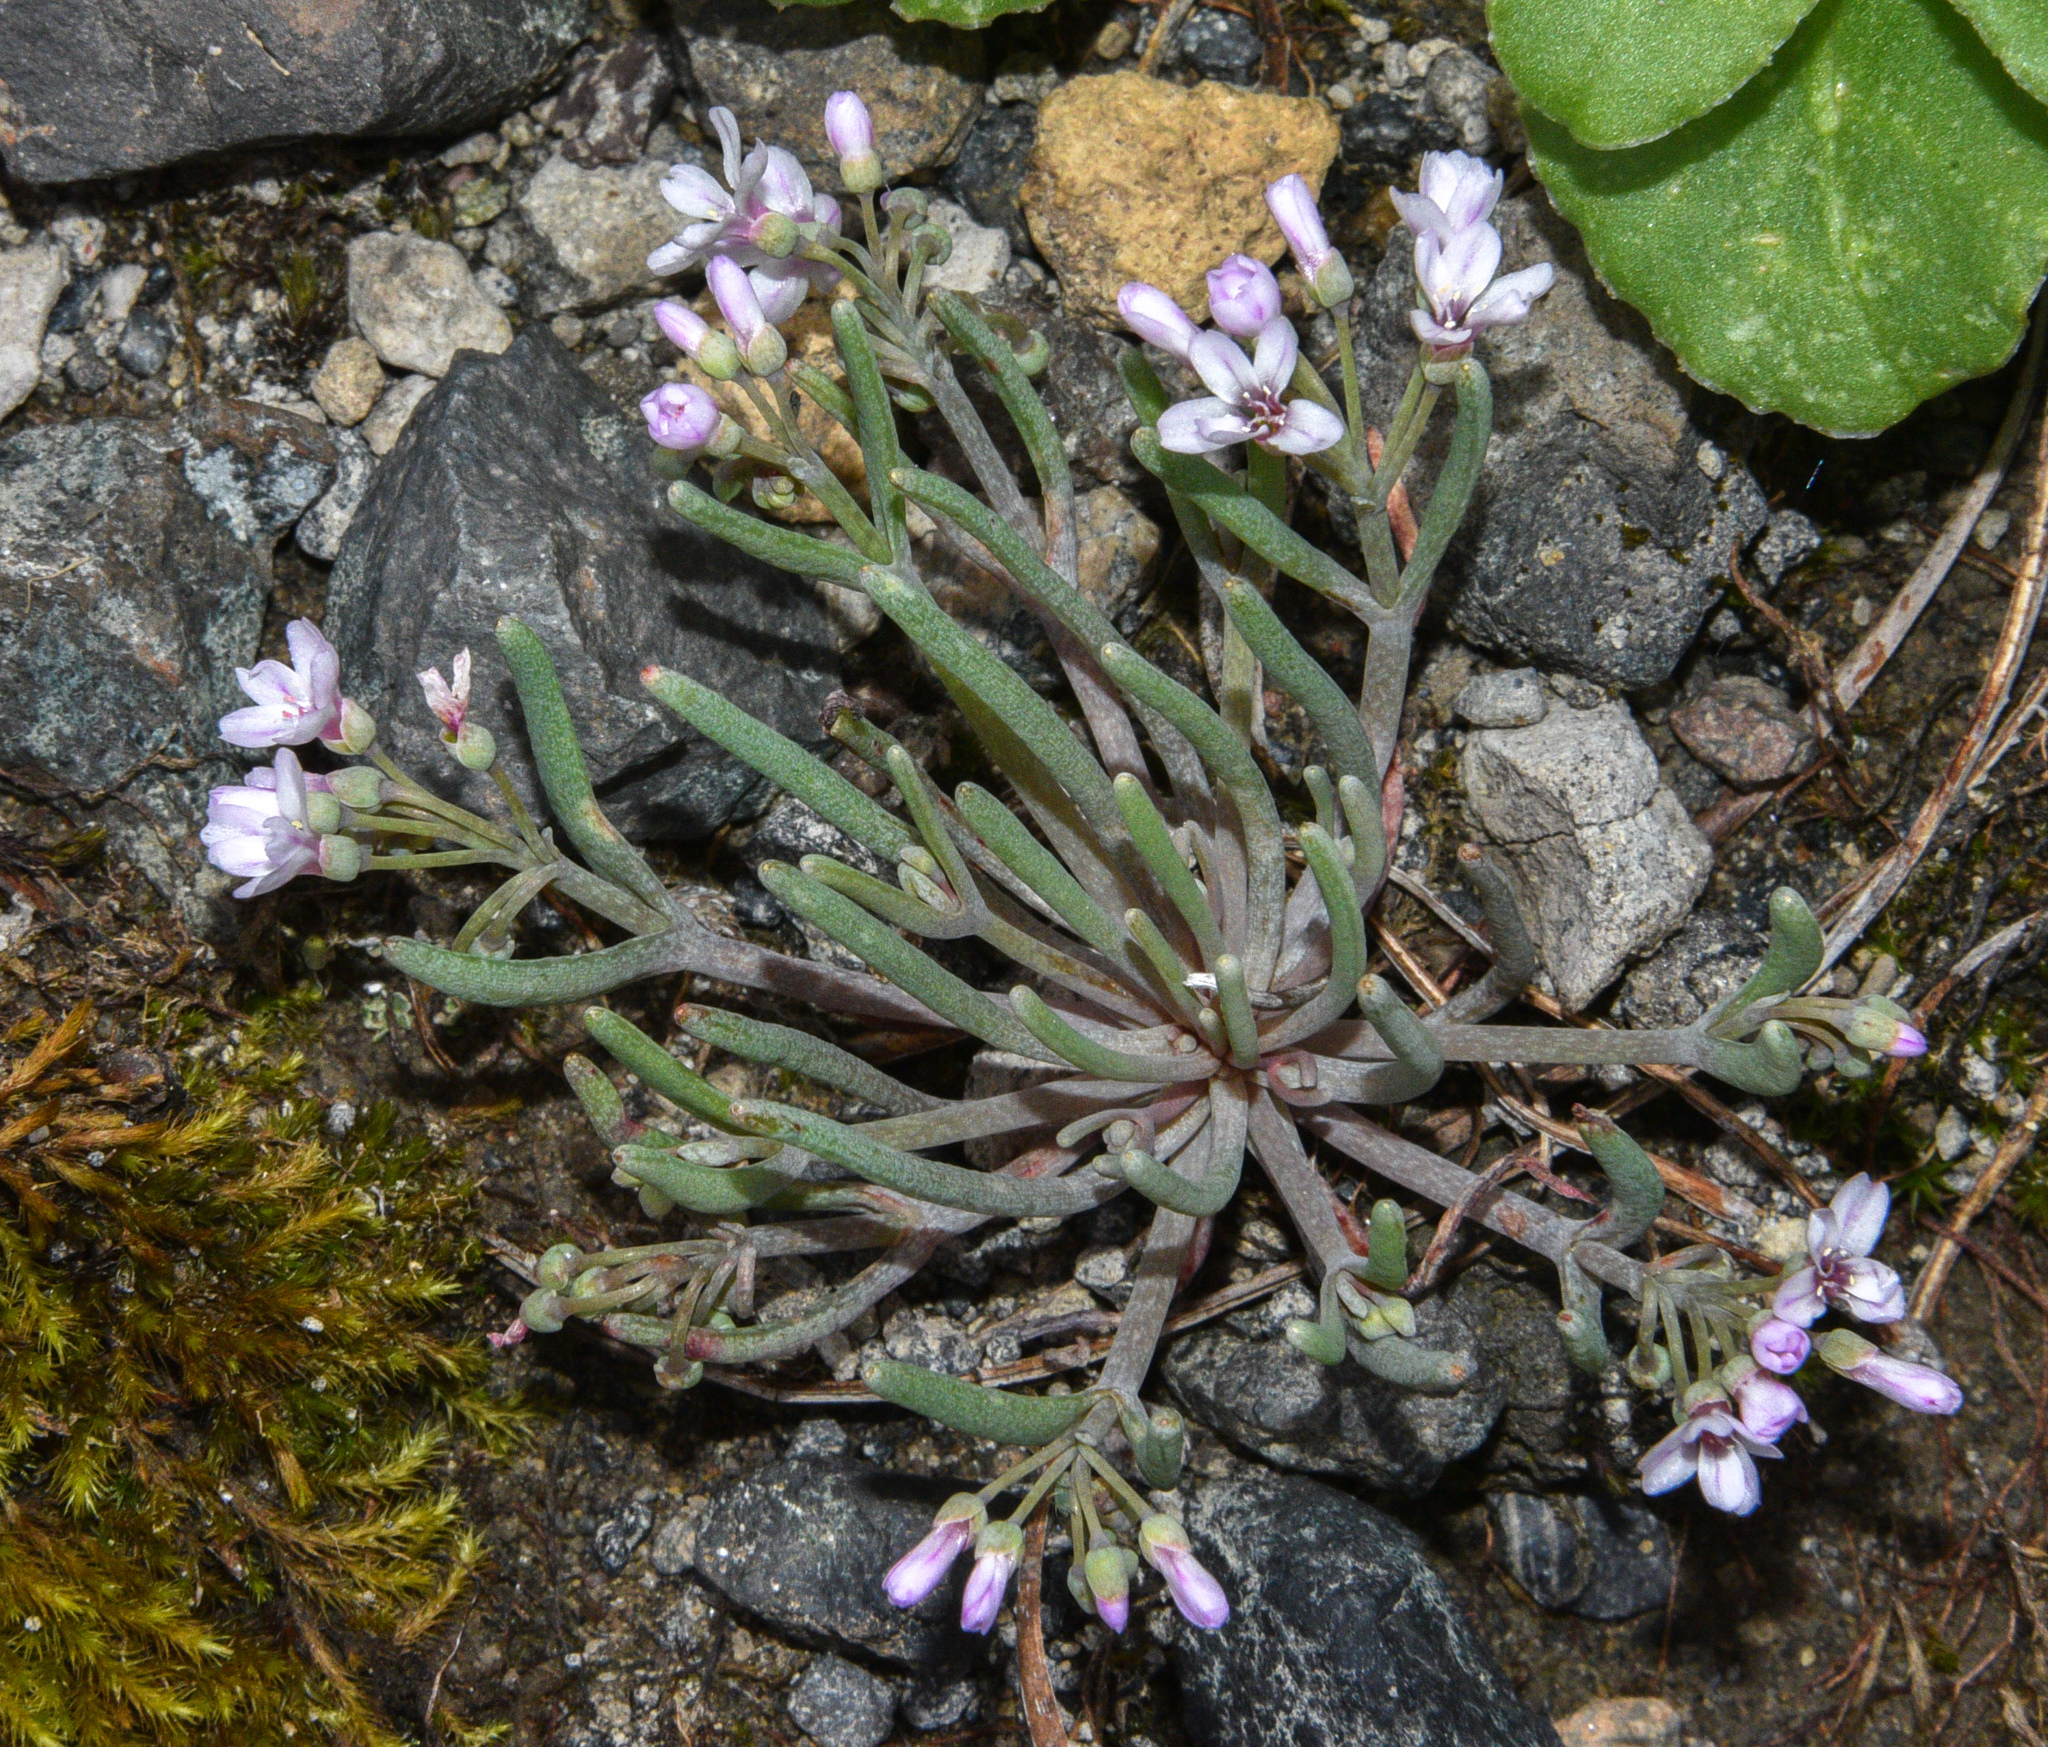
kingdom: Plantae
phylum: Tracheophyta
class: Magnoliopsida
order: Caryophyllales
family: Montiaceae
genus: Claytonia
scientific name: Claytonia exigua
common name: Pale spring beauty
